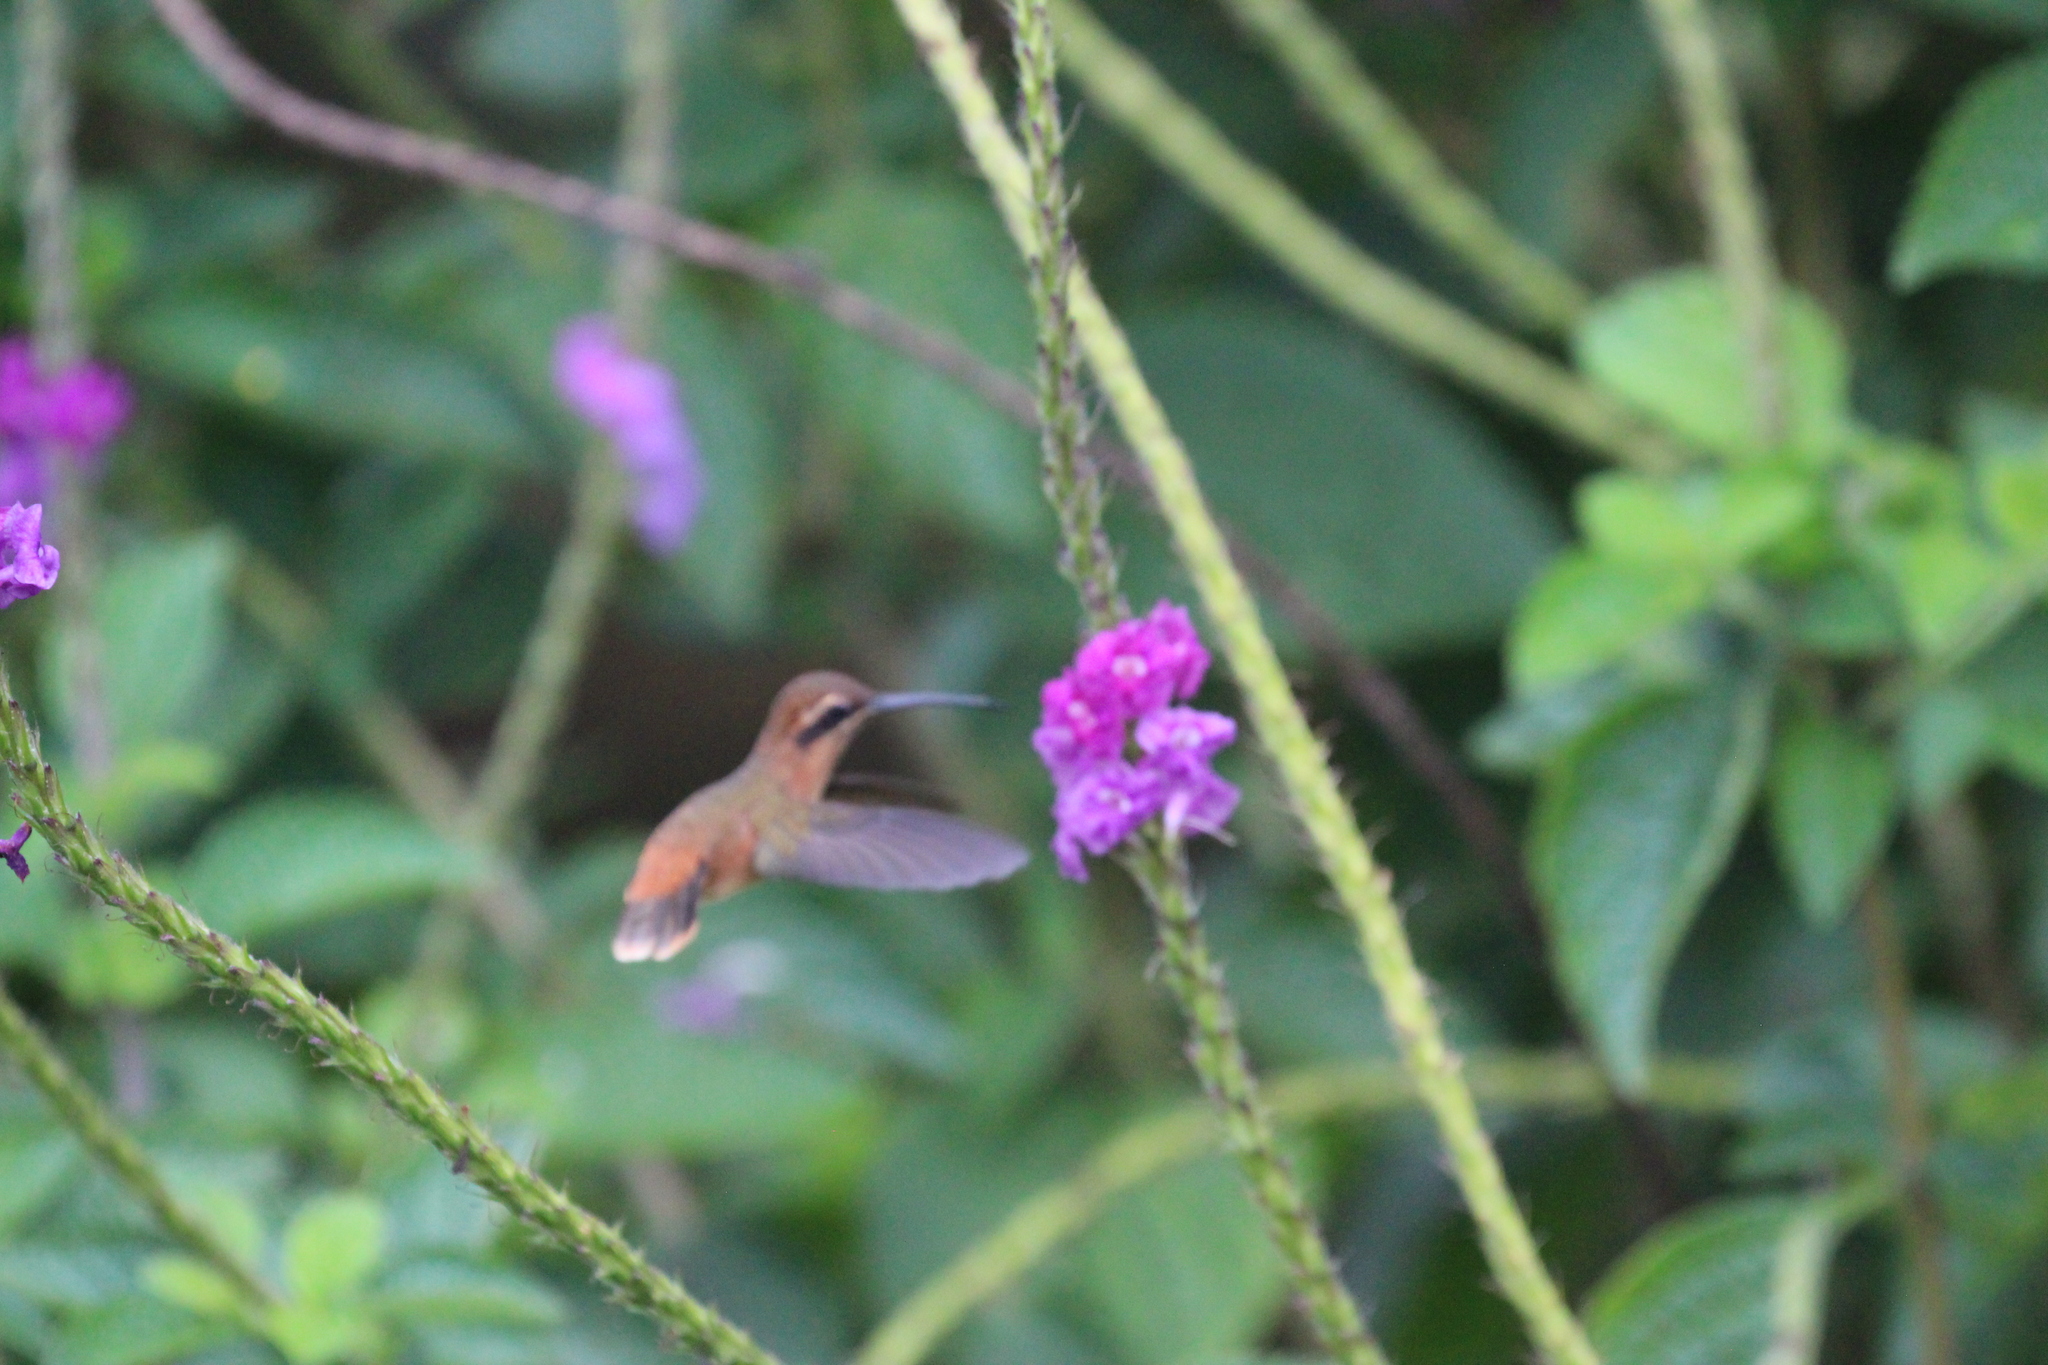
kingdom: Animalia
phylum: Chordata
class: Aves
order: Apodiformes
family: Trochilidae
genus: Phaethornis
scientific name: Phaethornis striigularis
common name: Stripe-throated hermit
